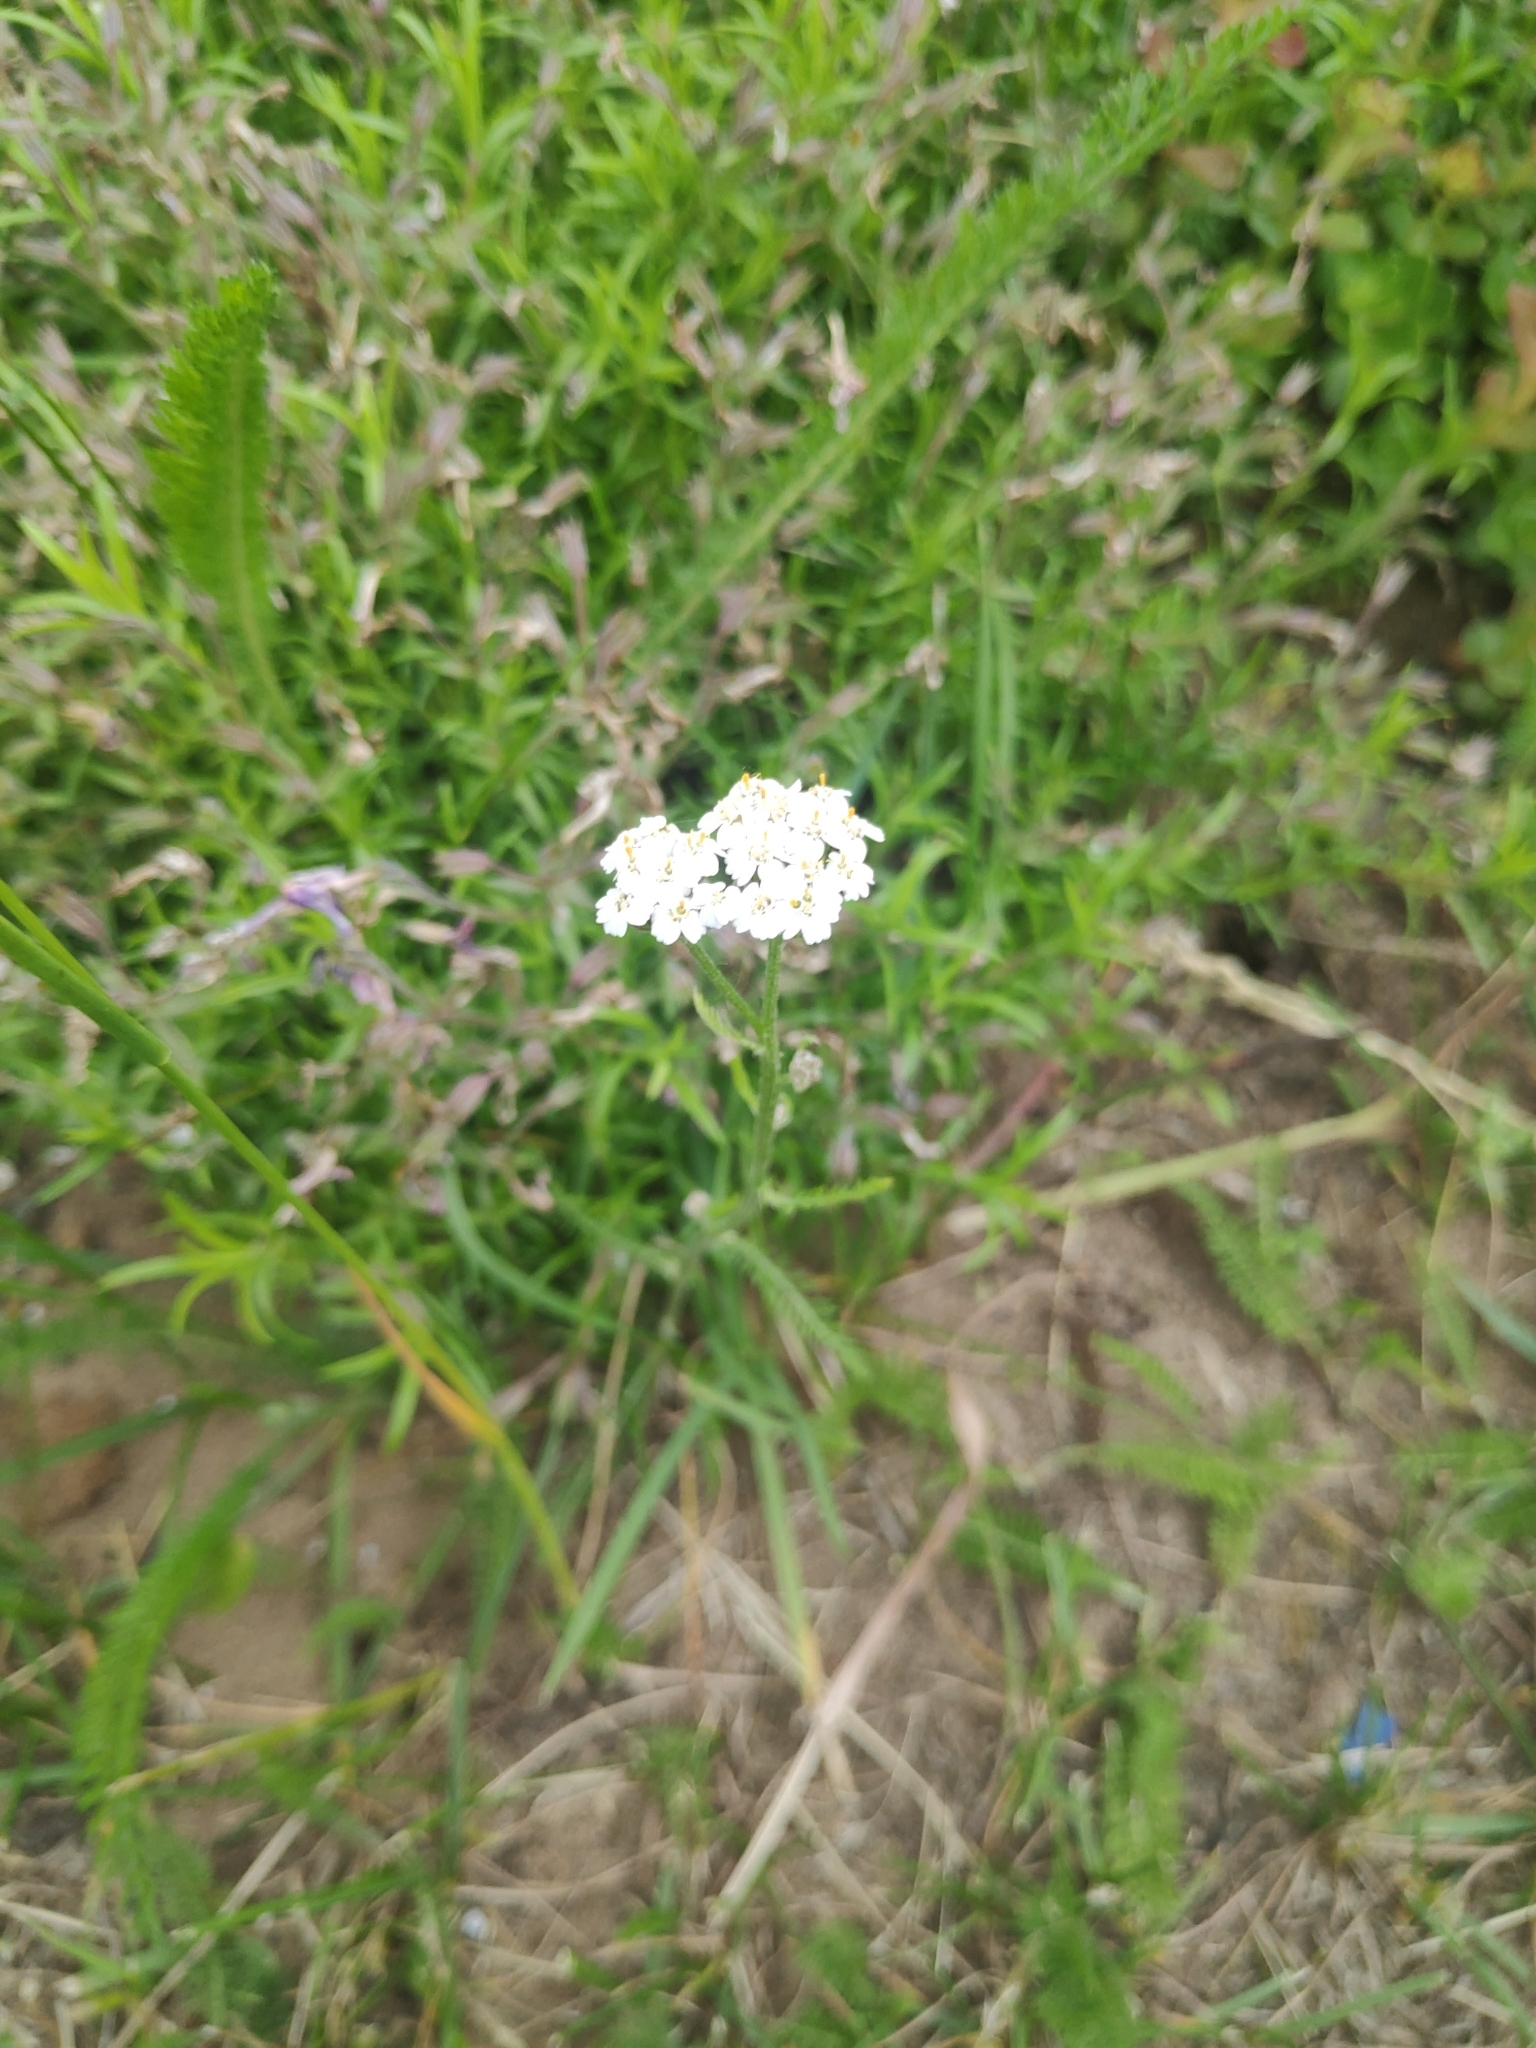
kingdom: Plantae
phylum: Tracheophyta
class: Magnoliopsida
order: Asterales
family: Asteraceae
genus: Achillea
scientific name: Achillea millefolium
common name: Yarrow
